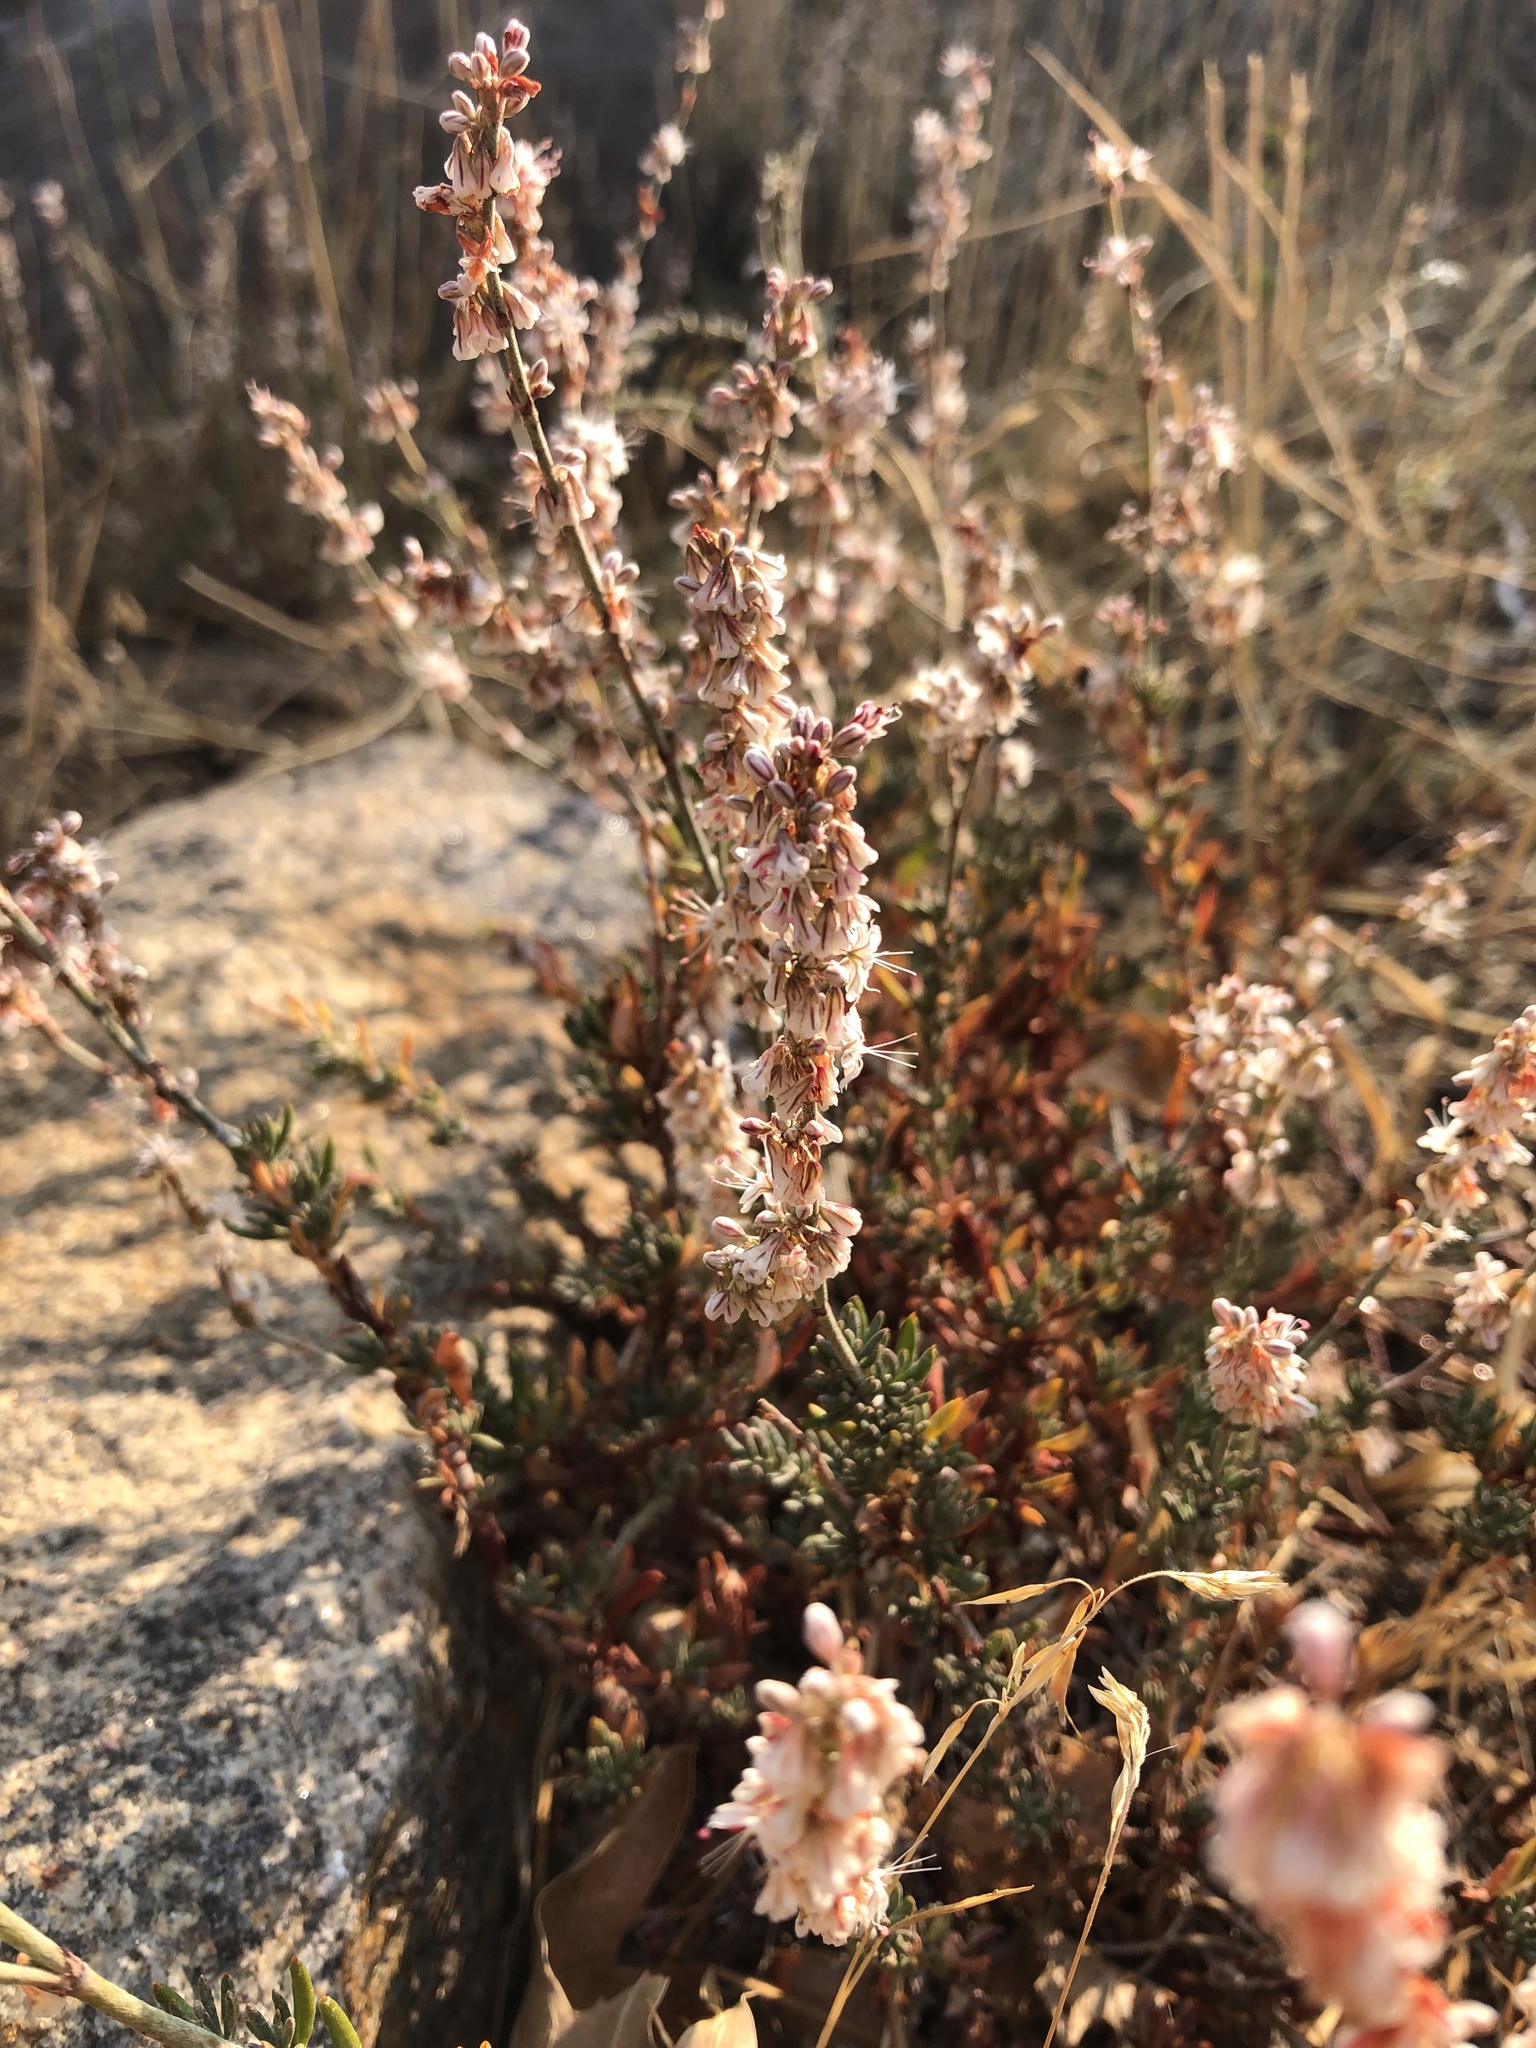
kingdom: Plantae
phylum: Tracheophyta
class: Magnoliopsida
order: Caryophyllales
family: Polygonaceae
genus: Eriogonum
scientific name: Eriogonum wrightii
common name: Bastard-sage
